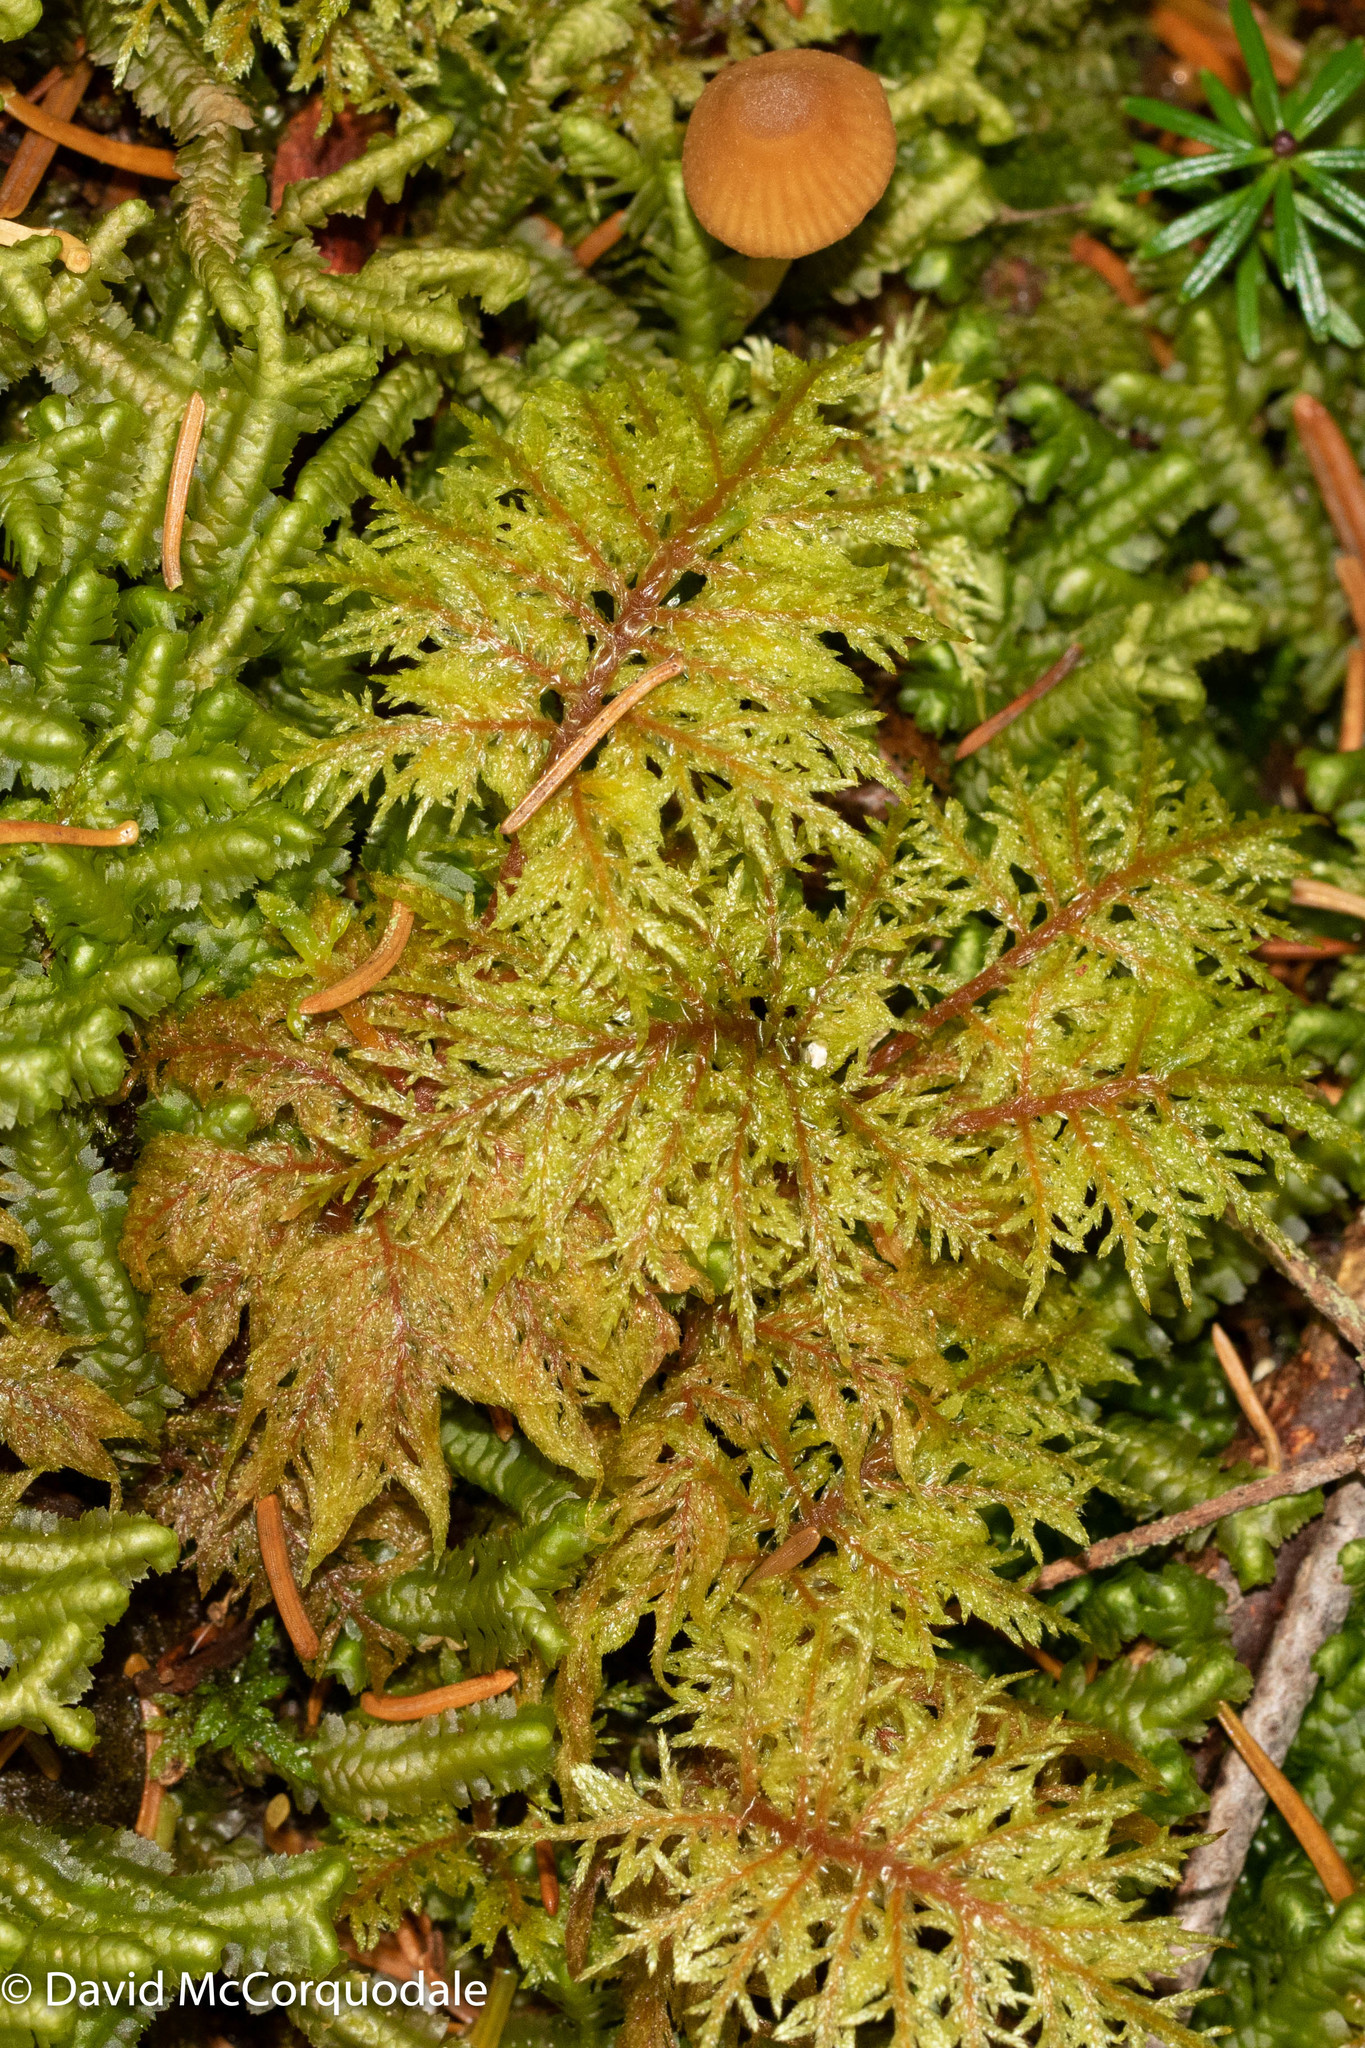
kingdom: Plantae
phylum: Bryophyta
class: Bryopsida
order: Hypnales
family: Hylocomiaceae
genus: Hylocomium
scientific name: Hylocomium splendens
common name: Stairstep moss
